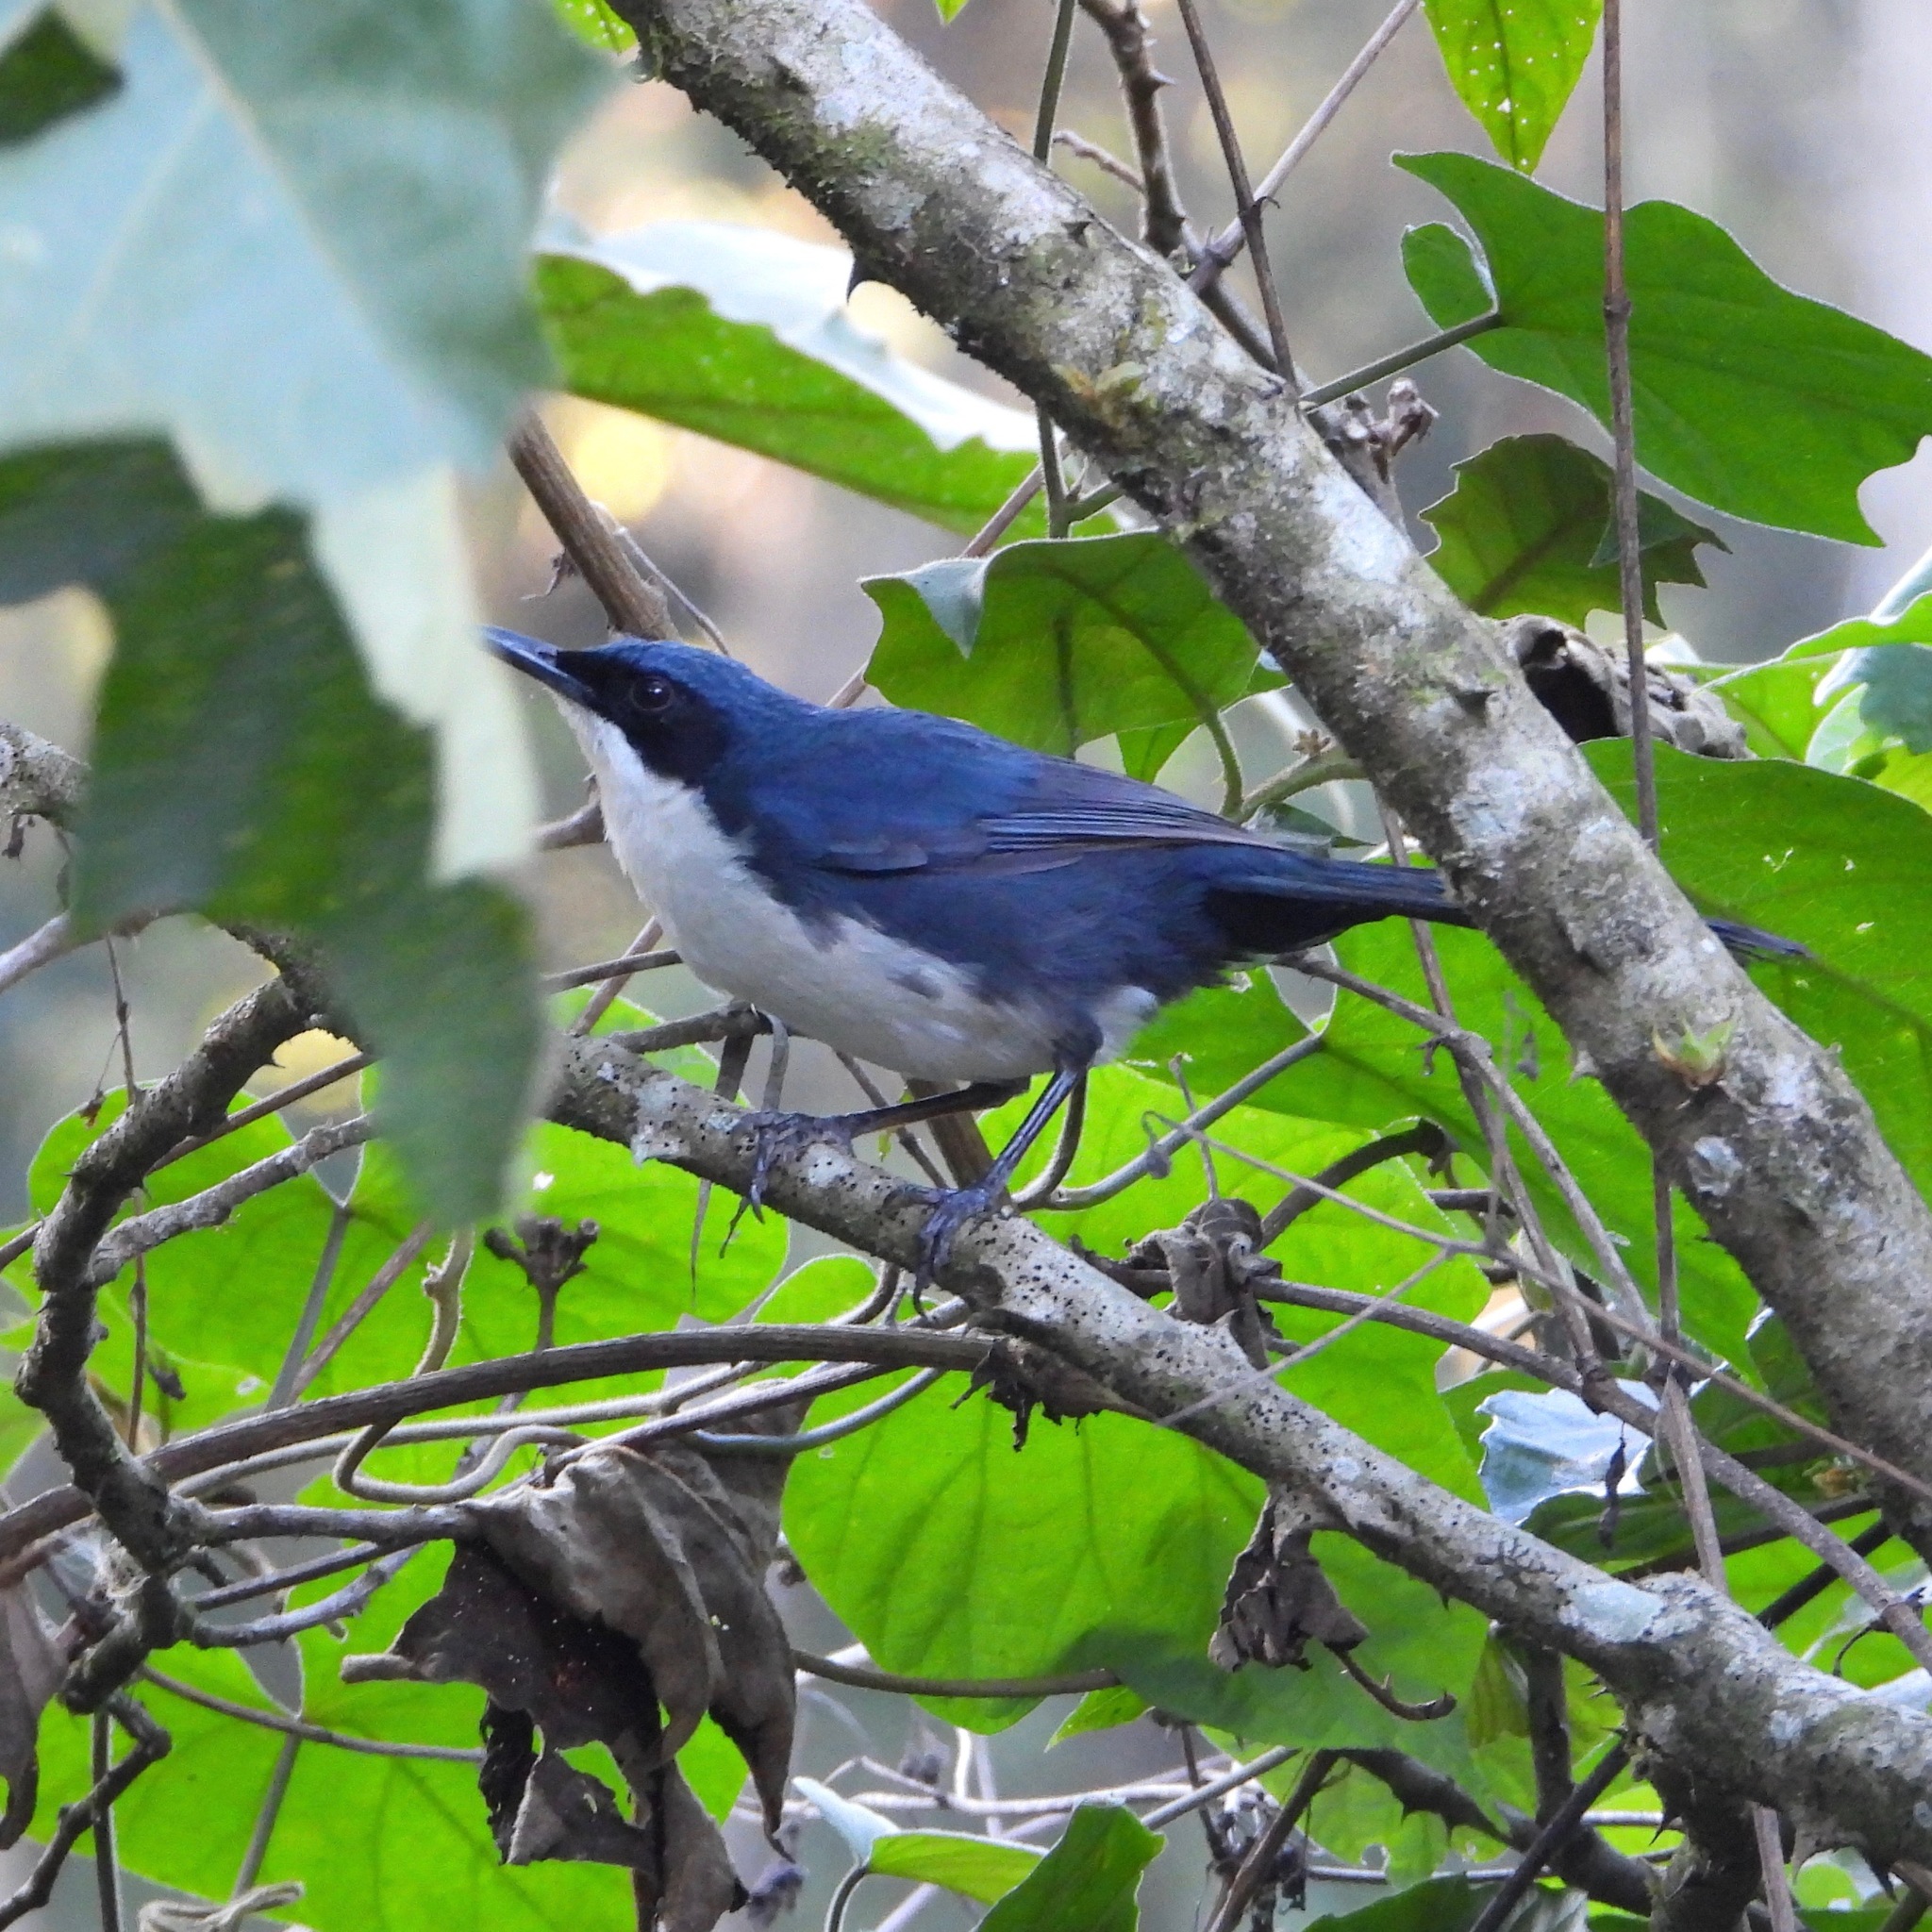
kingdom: Animalia
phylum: Chordata
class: Aves
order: Passeriformes
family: Mimidae
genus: Melanotis
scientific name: Melanotis hypoleucus
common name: Blue-and-white mockingbird
